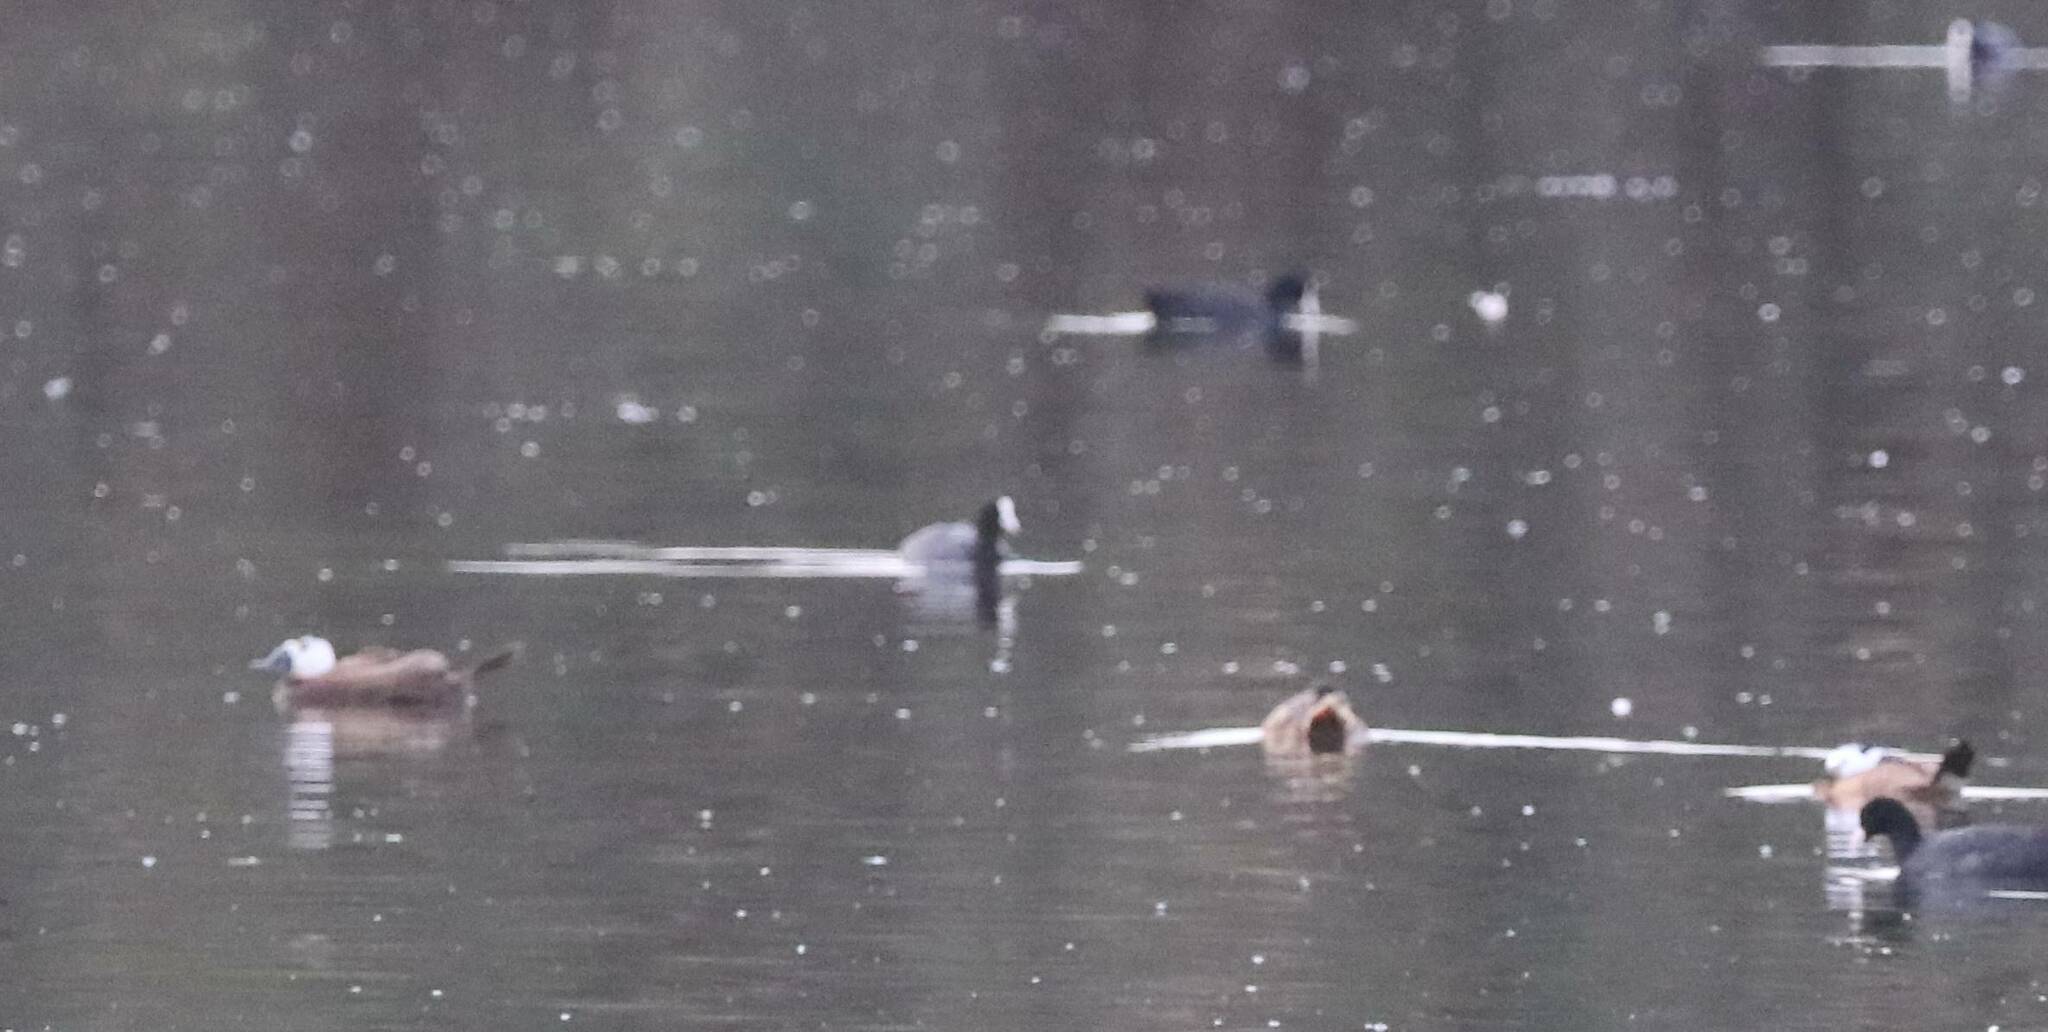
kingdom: Animalia
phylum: Chordata
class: Aves
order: Anseriformes
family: Anatidae
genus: Oxyura
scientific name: Oxyura leucocephala
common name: White-headed duck
